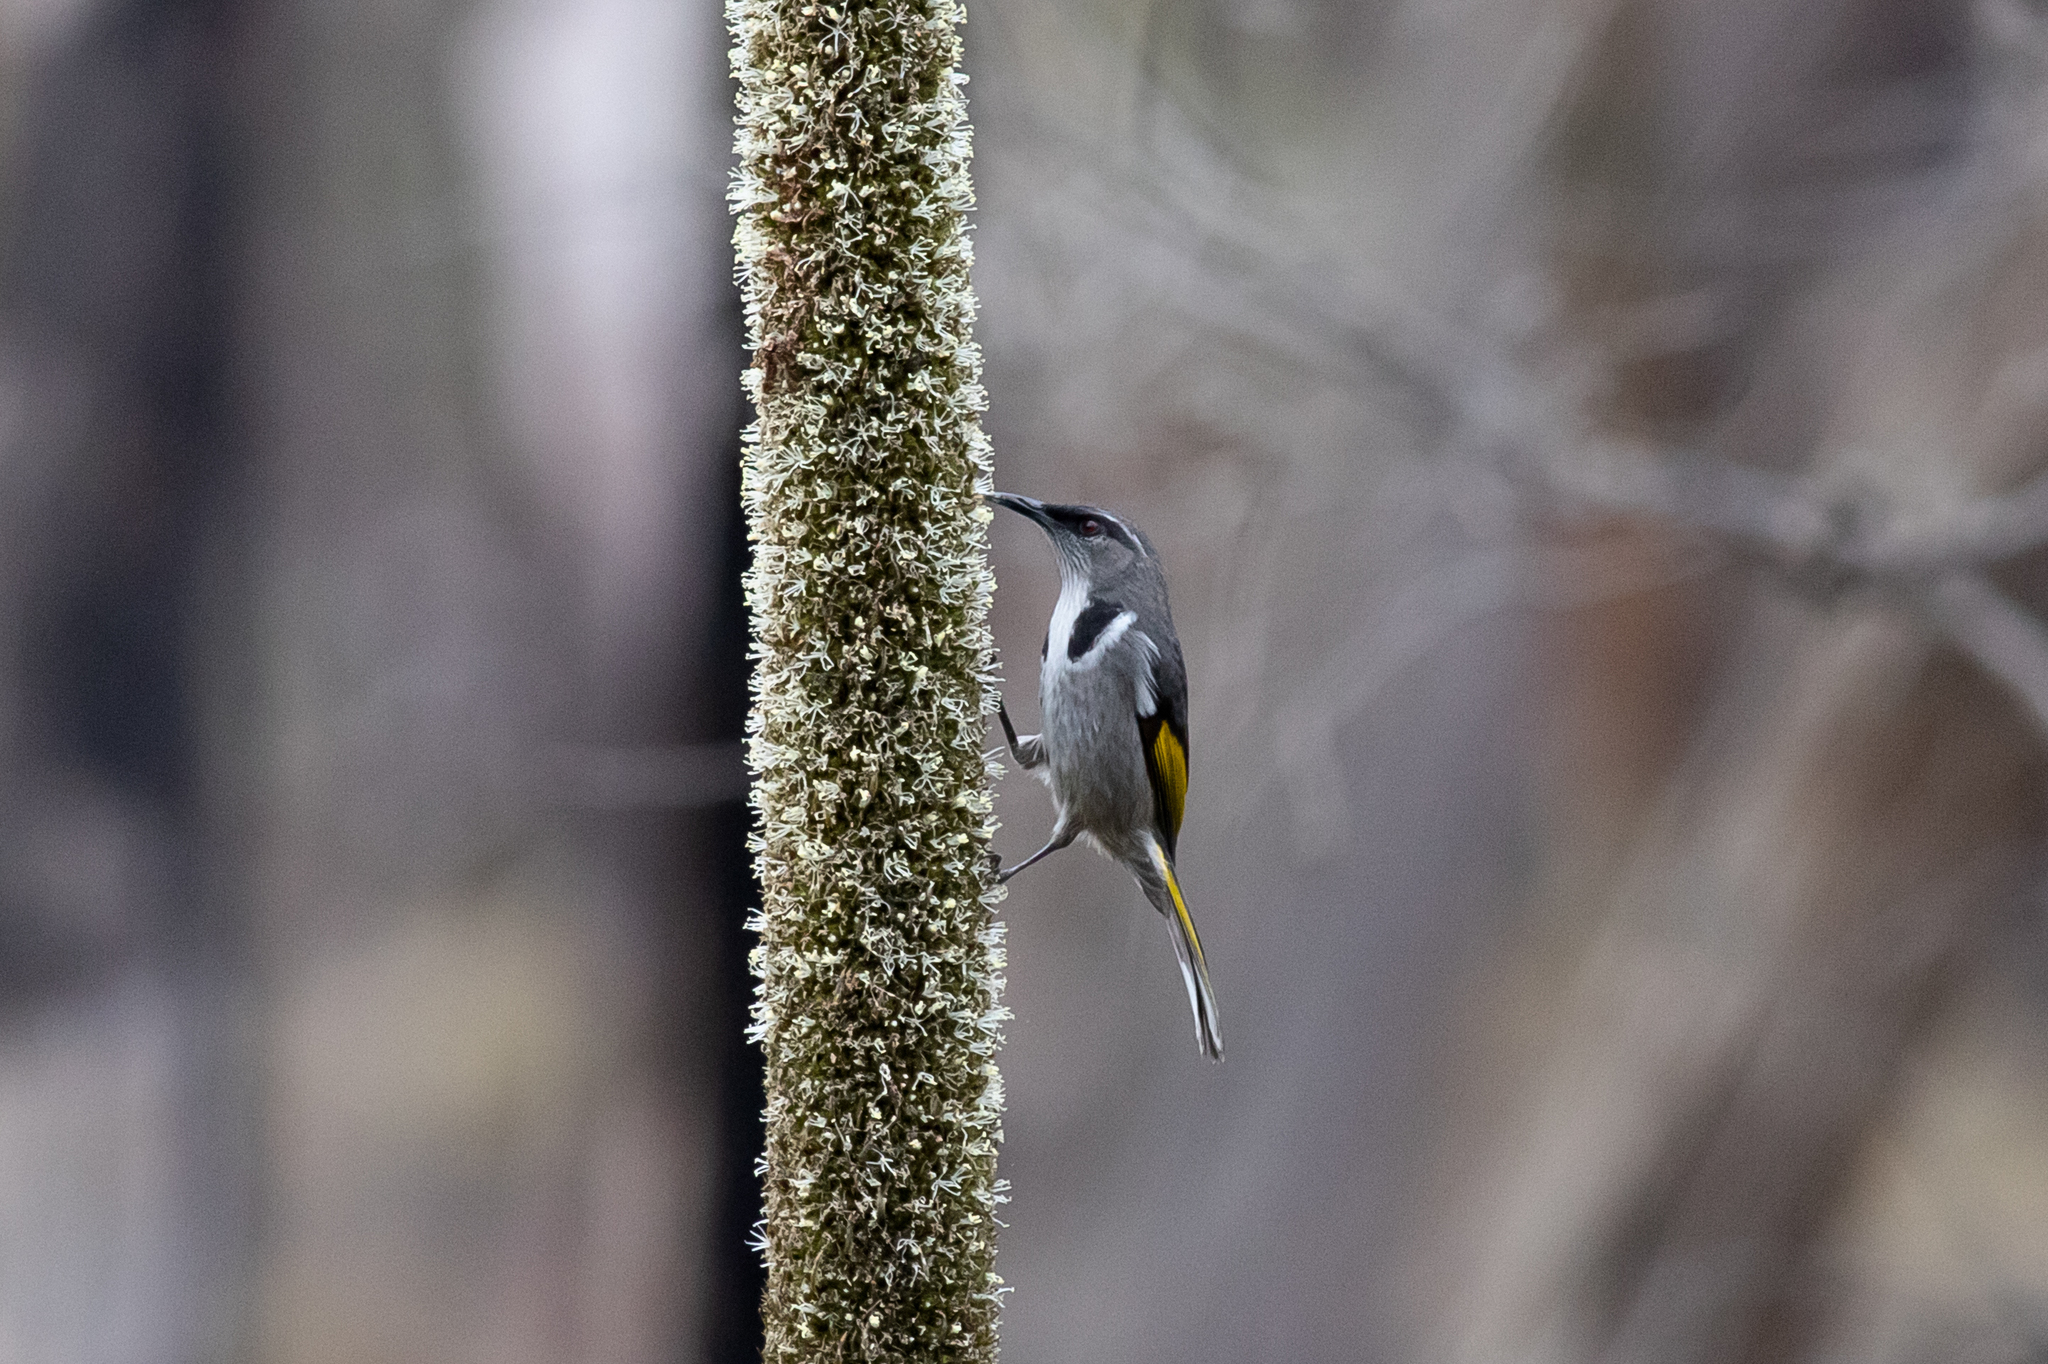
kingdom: Animalia
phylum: Chordata
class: Aves
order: Passeriformes
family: Meliphagidae
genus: Phylidonyris
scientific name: Phylidonyris pyrrhopterus
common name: Crescent honeyeater
